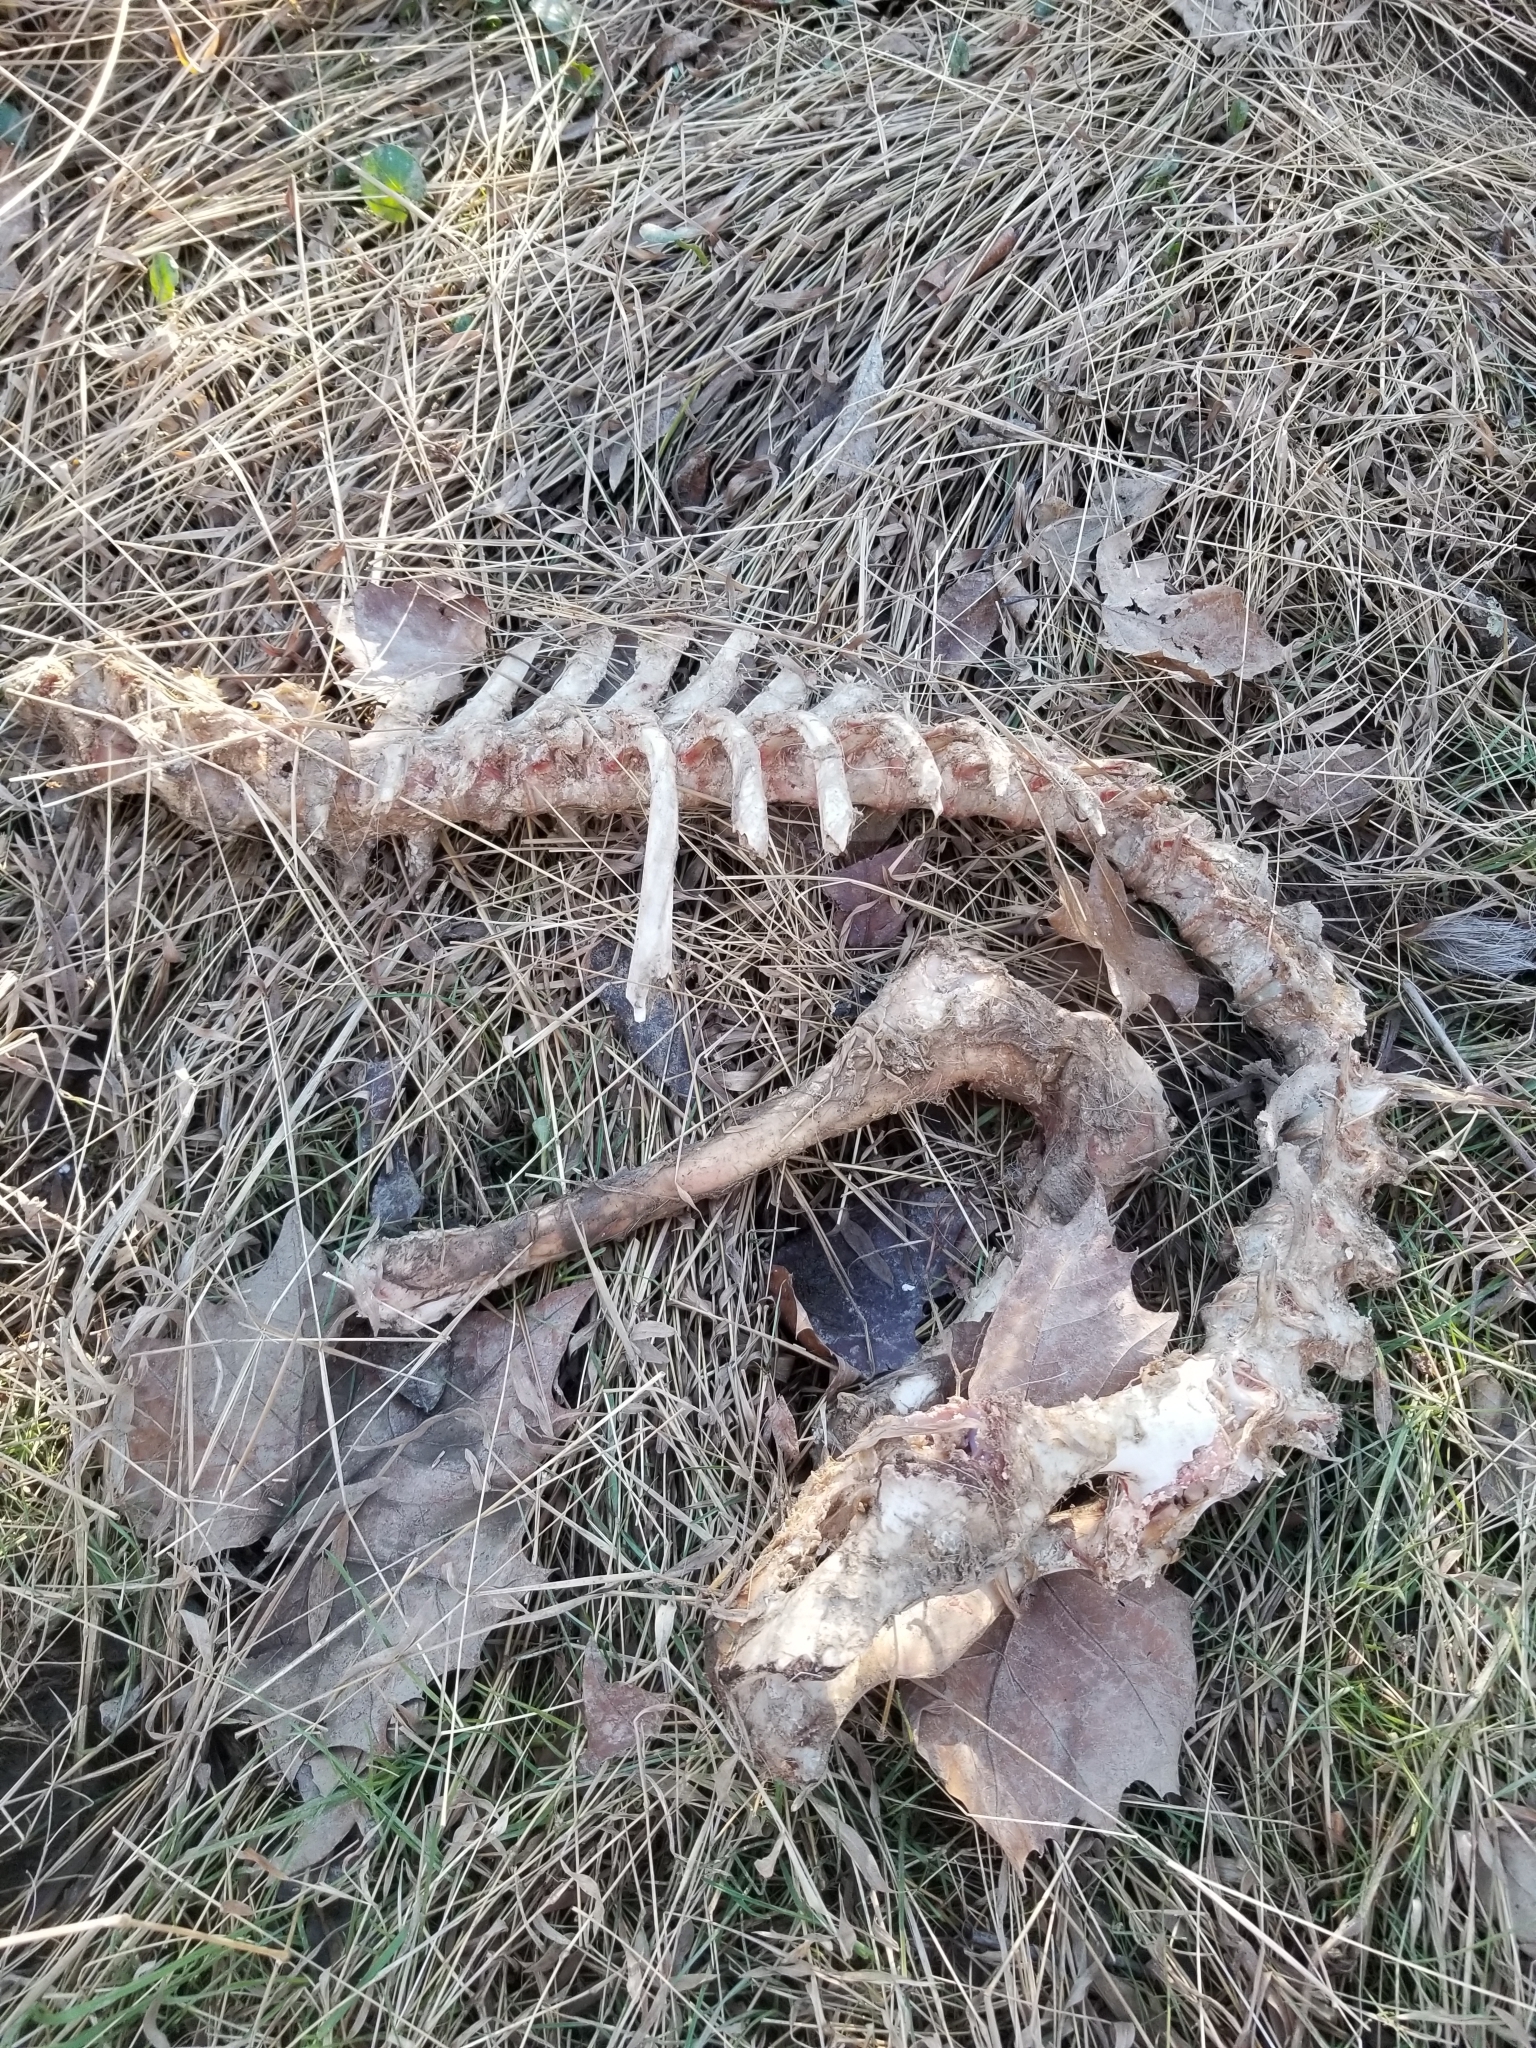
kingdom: Animalia
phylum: Chordata
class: Mammalia
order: Artiodactyla
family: Cervidae
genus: Odocoileus
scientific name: Odocoileus virginianus
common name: White-tailed deer
